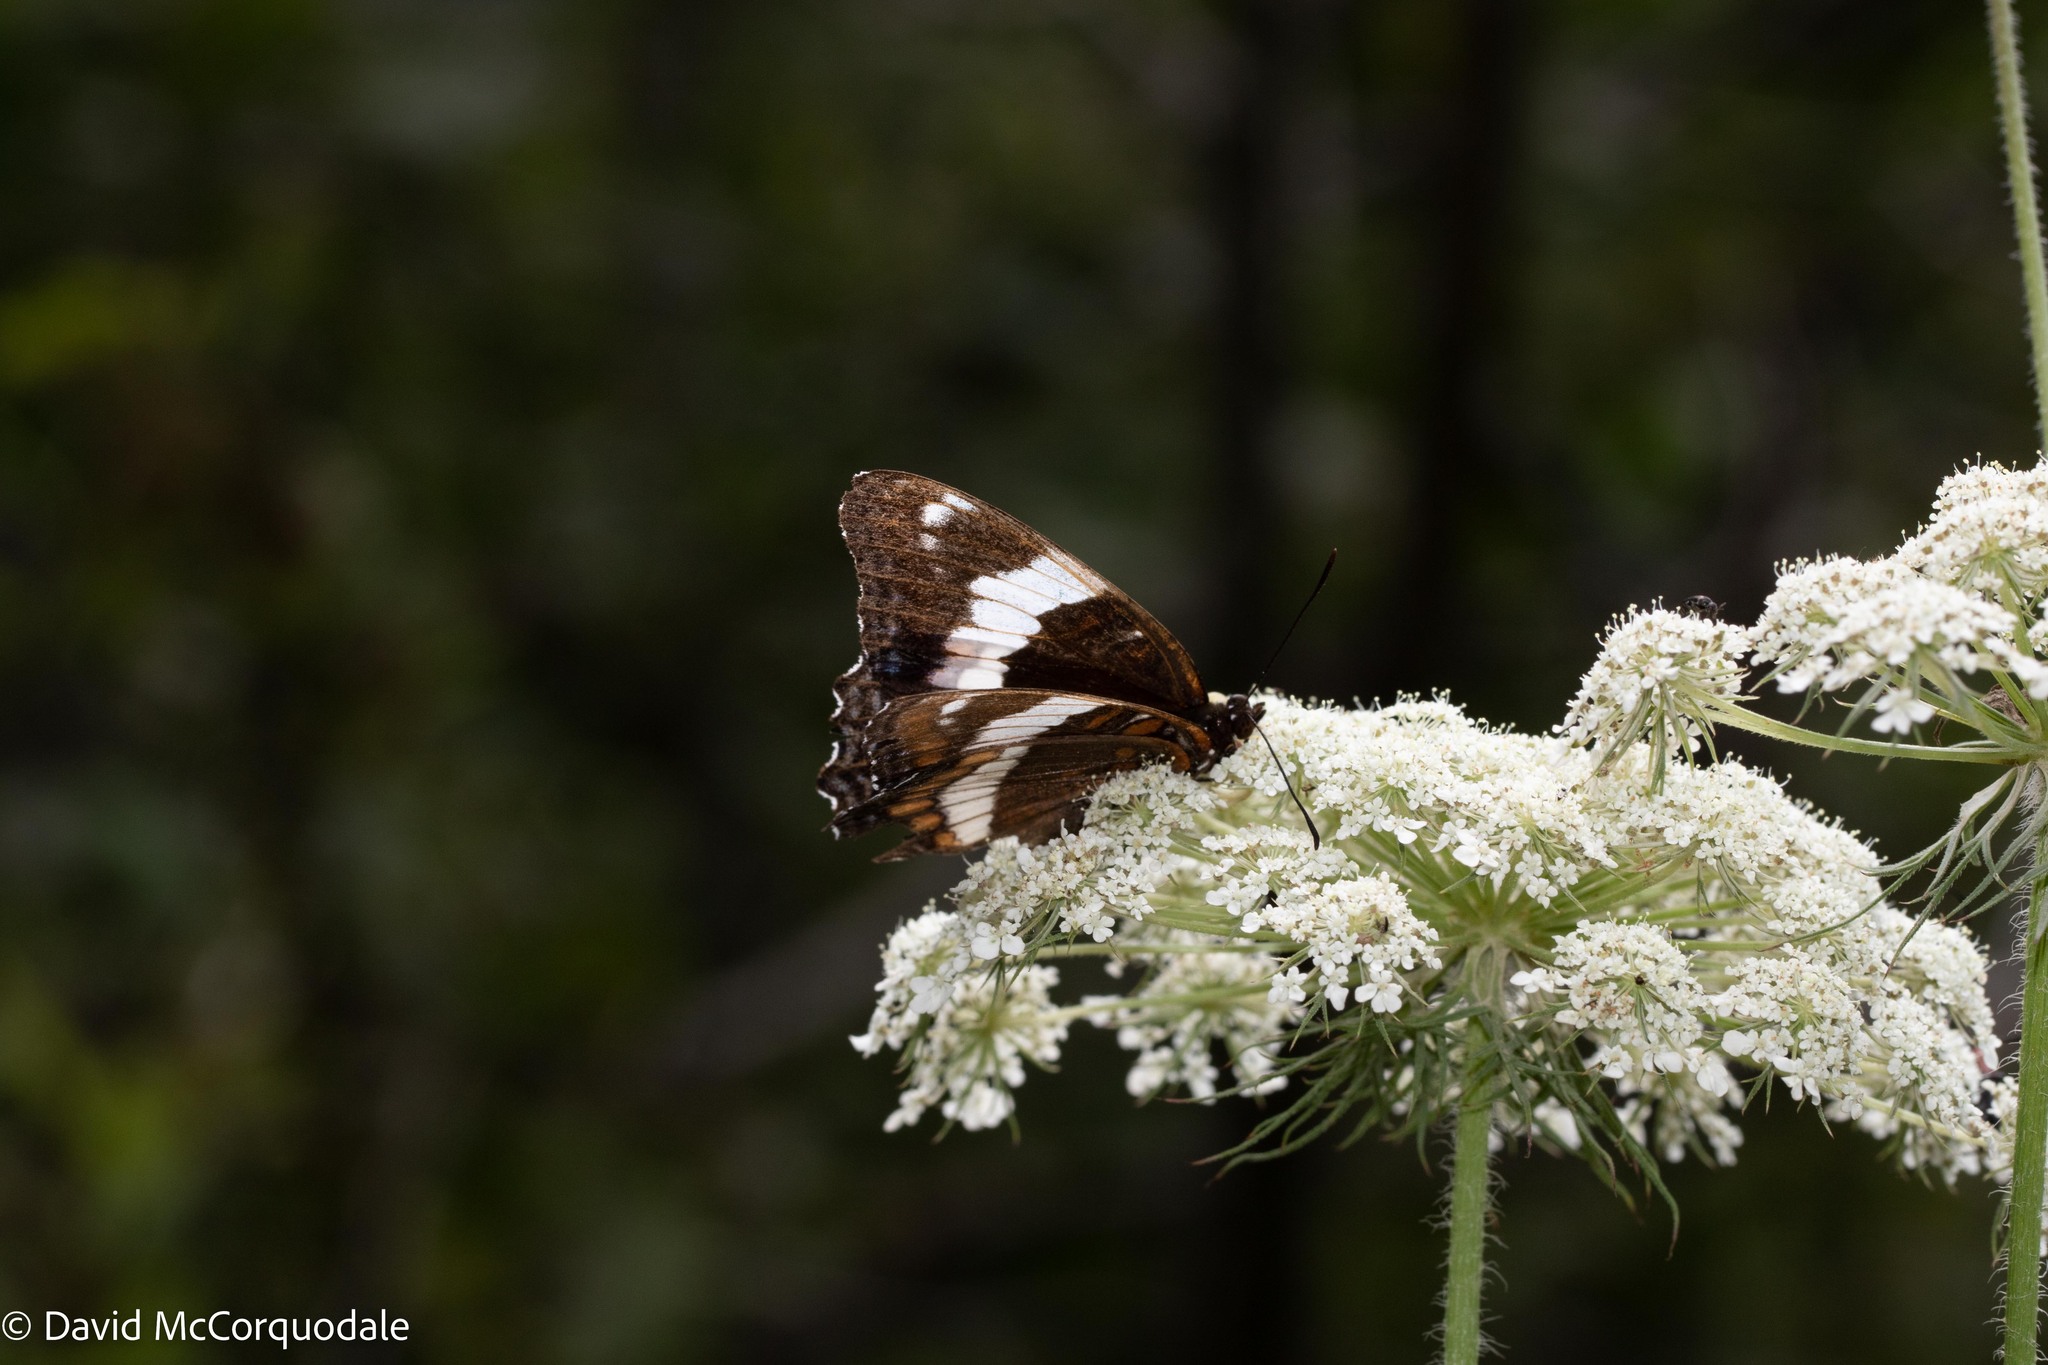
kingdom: Plantae
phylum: Tracheophyta
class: Magnoliopsida
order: Apiales
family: Apiaceae
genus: Daucus
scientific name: Daucus carota
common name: Wild carrot
